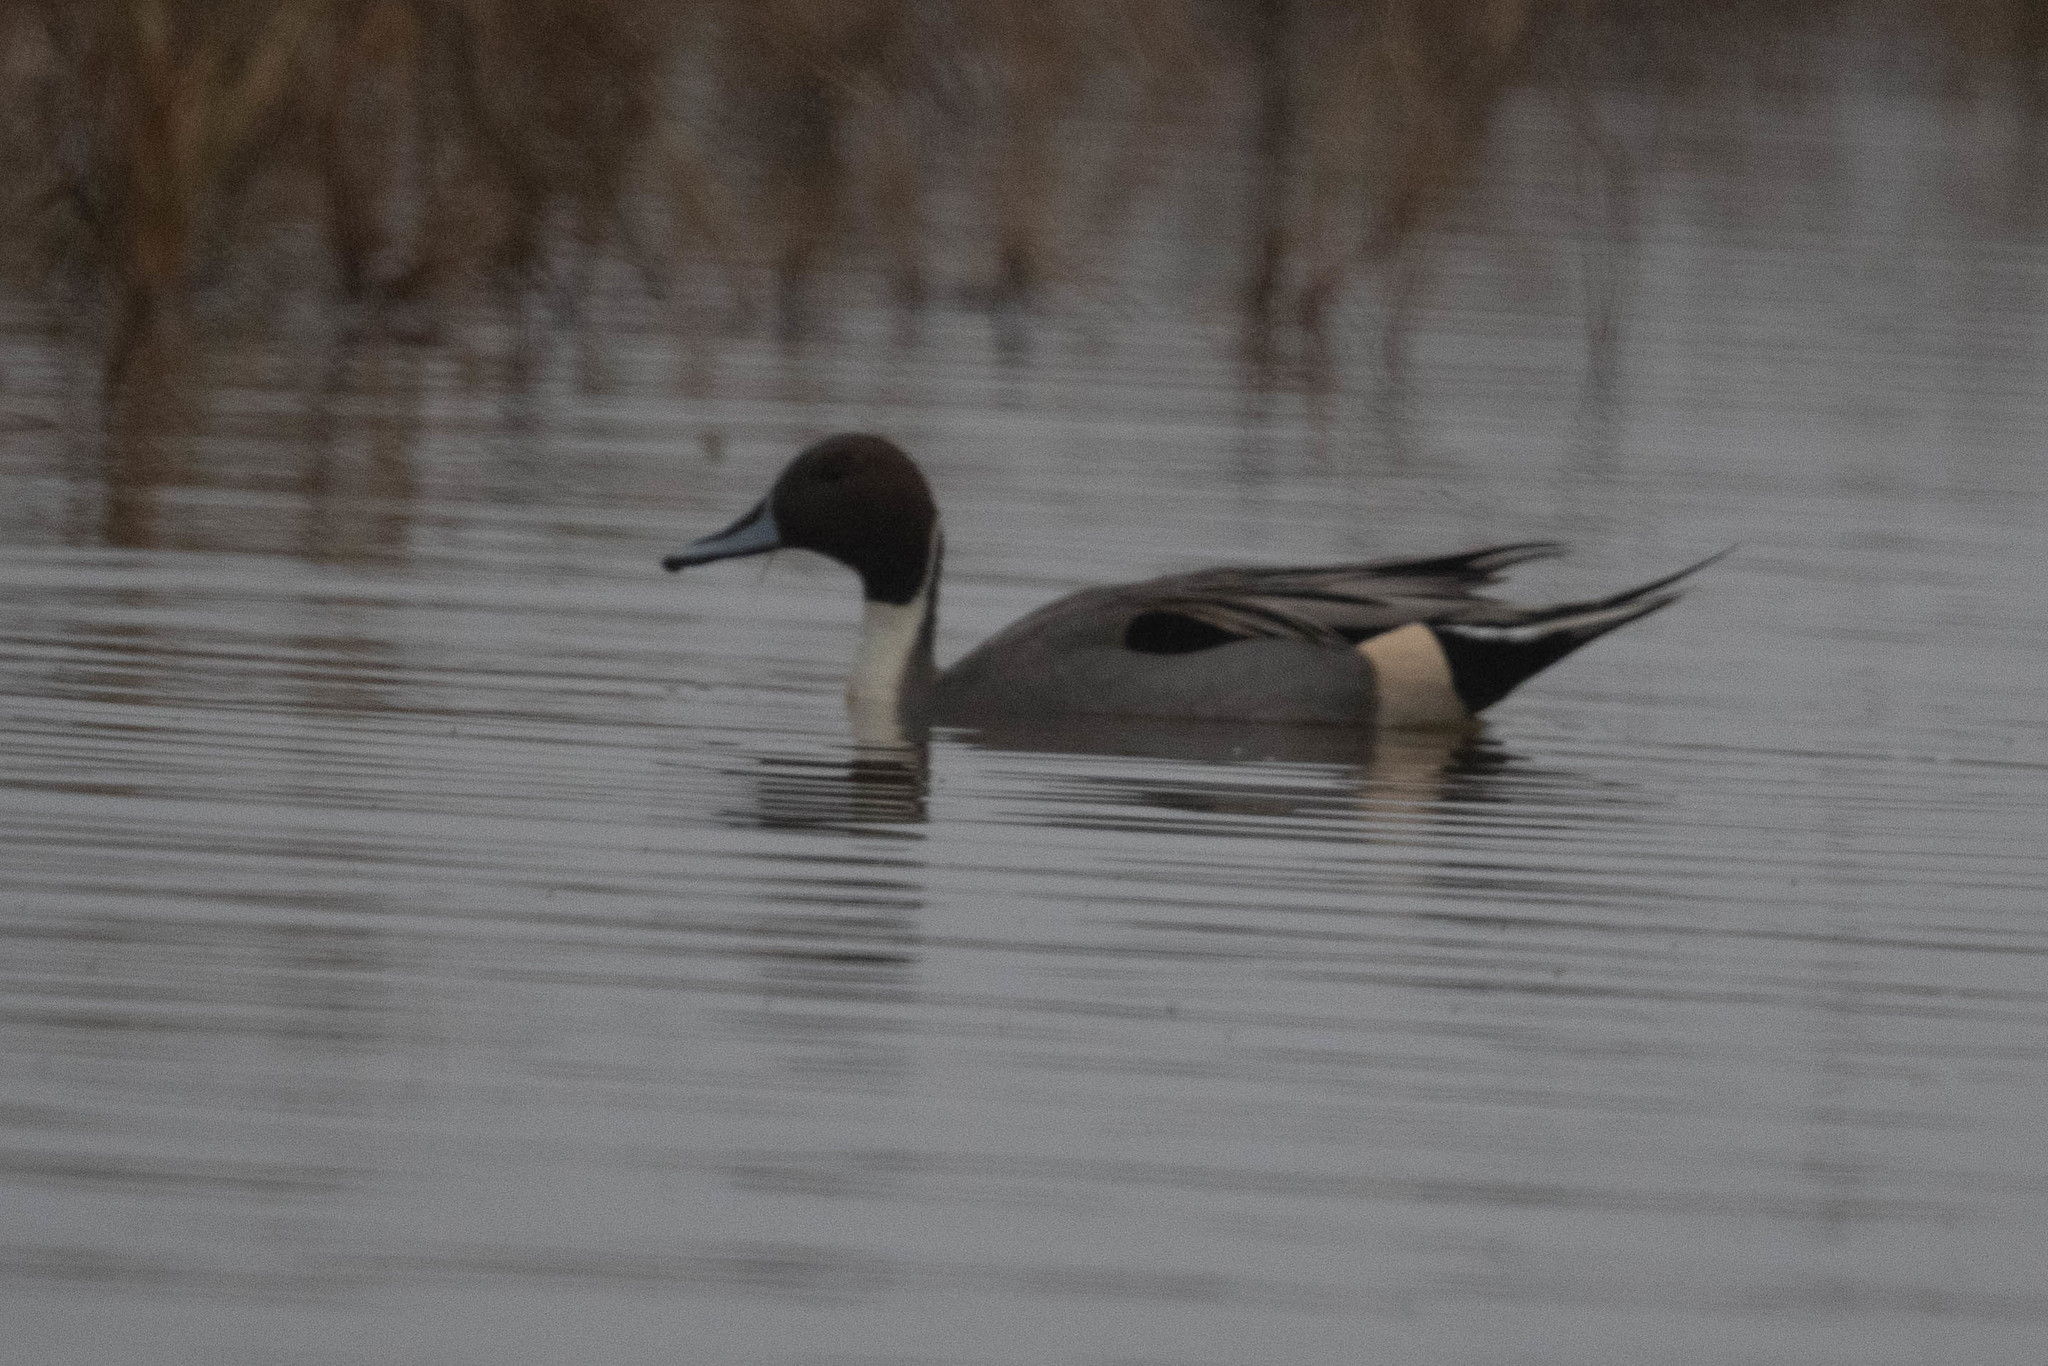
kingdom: Animalia
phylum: Chordata
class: Aves
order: Anseriformes
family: Anatidae
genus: Anas
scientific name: Anas acuta
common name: Northern pintail
